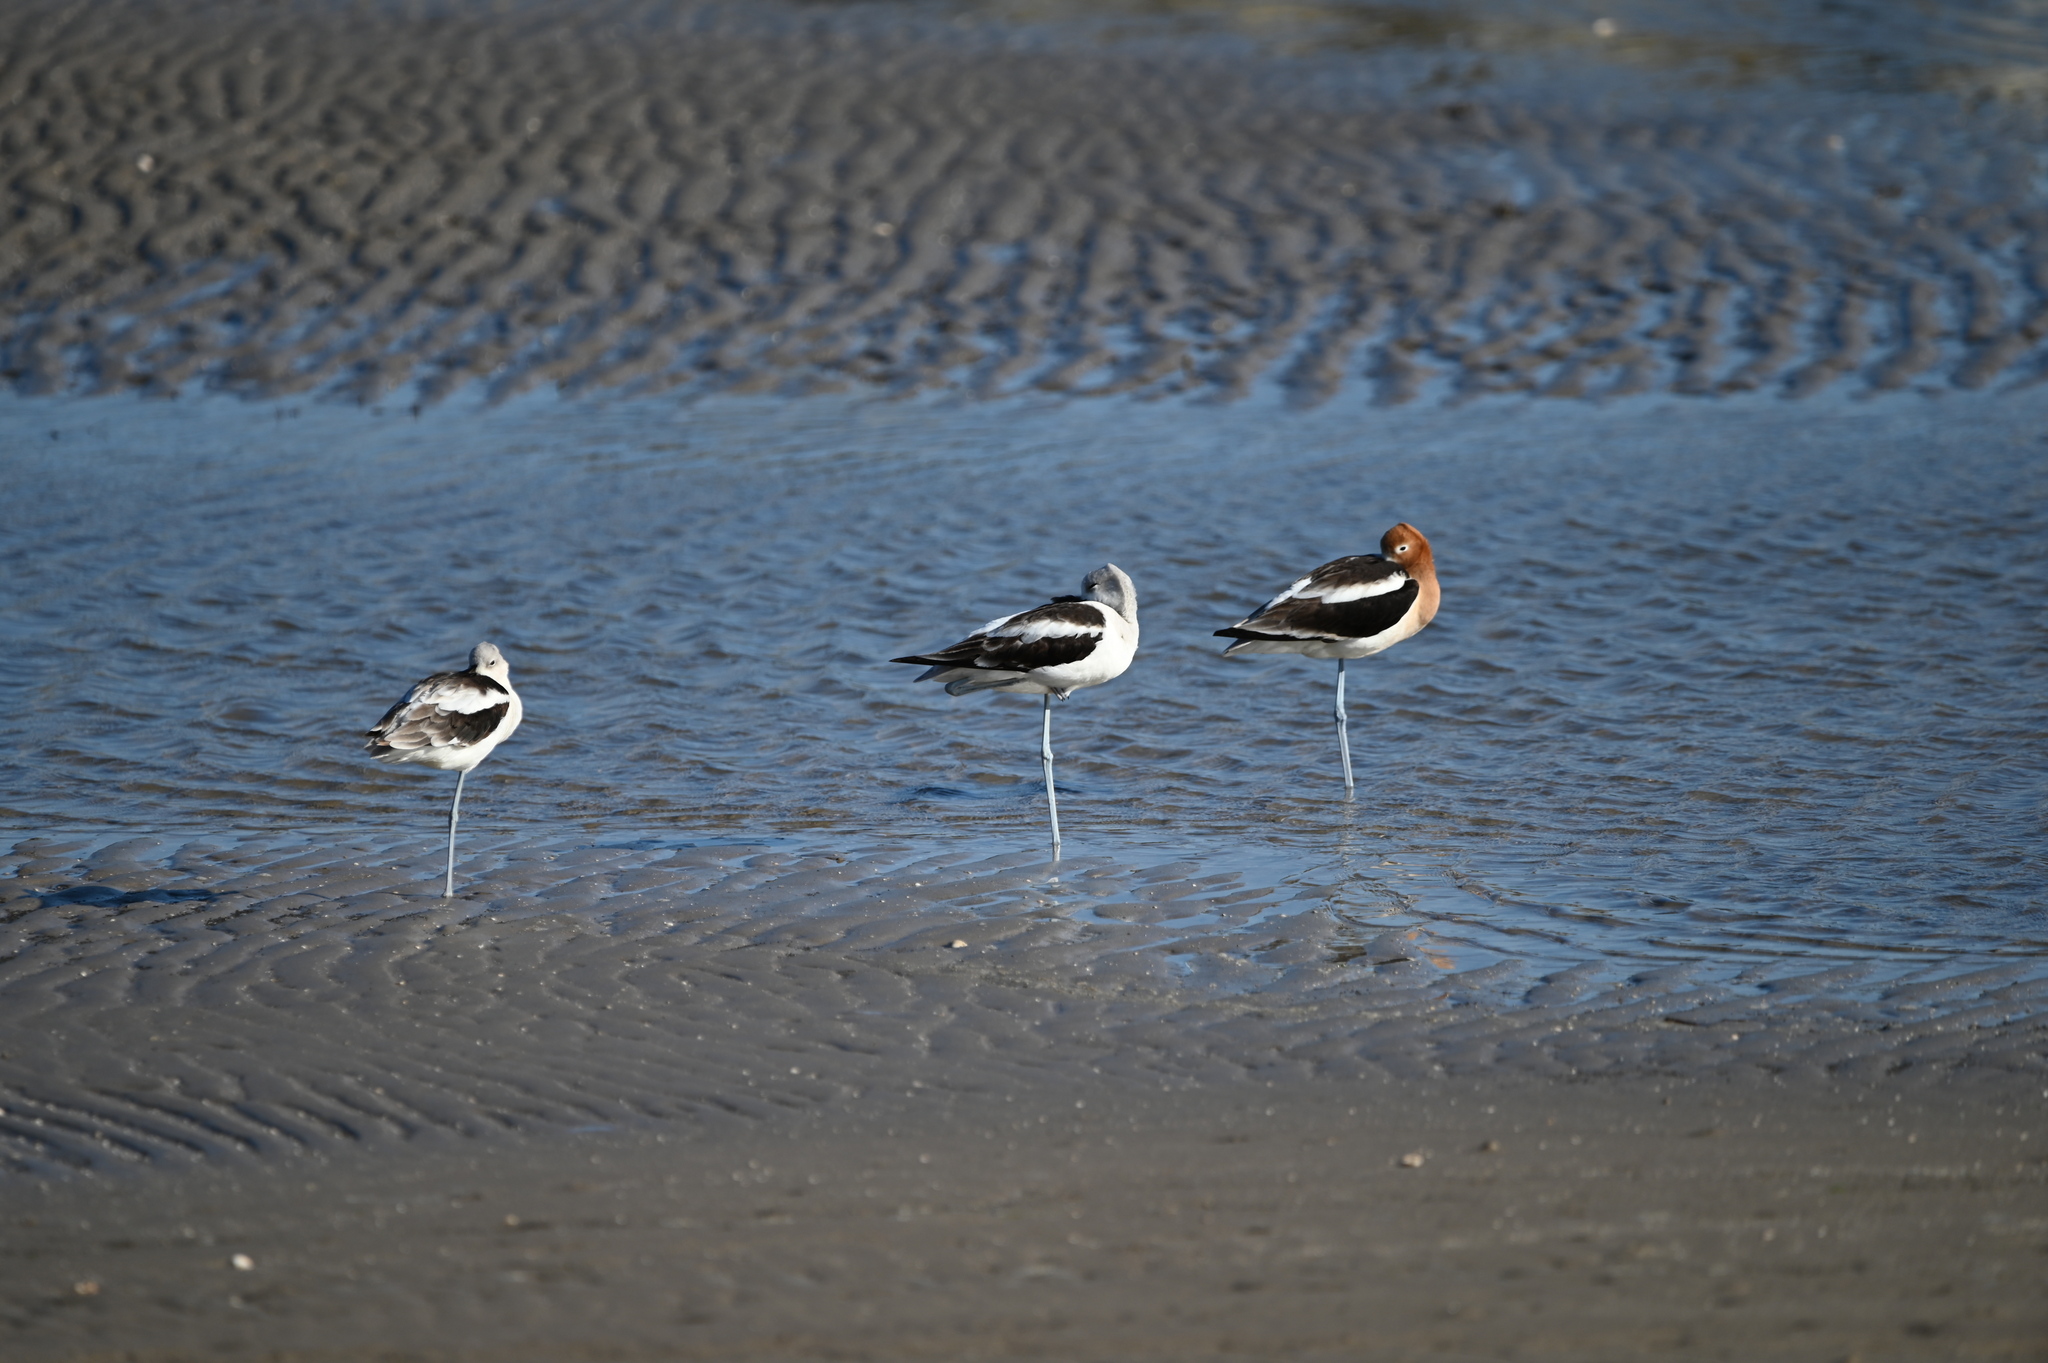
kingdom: Animalia
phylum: Chordata
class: Aves
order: Charadriiformes
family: Recurvirostridae
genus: Recurvirostra
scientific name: Recurvirostra americana
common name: American avocet
